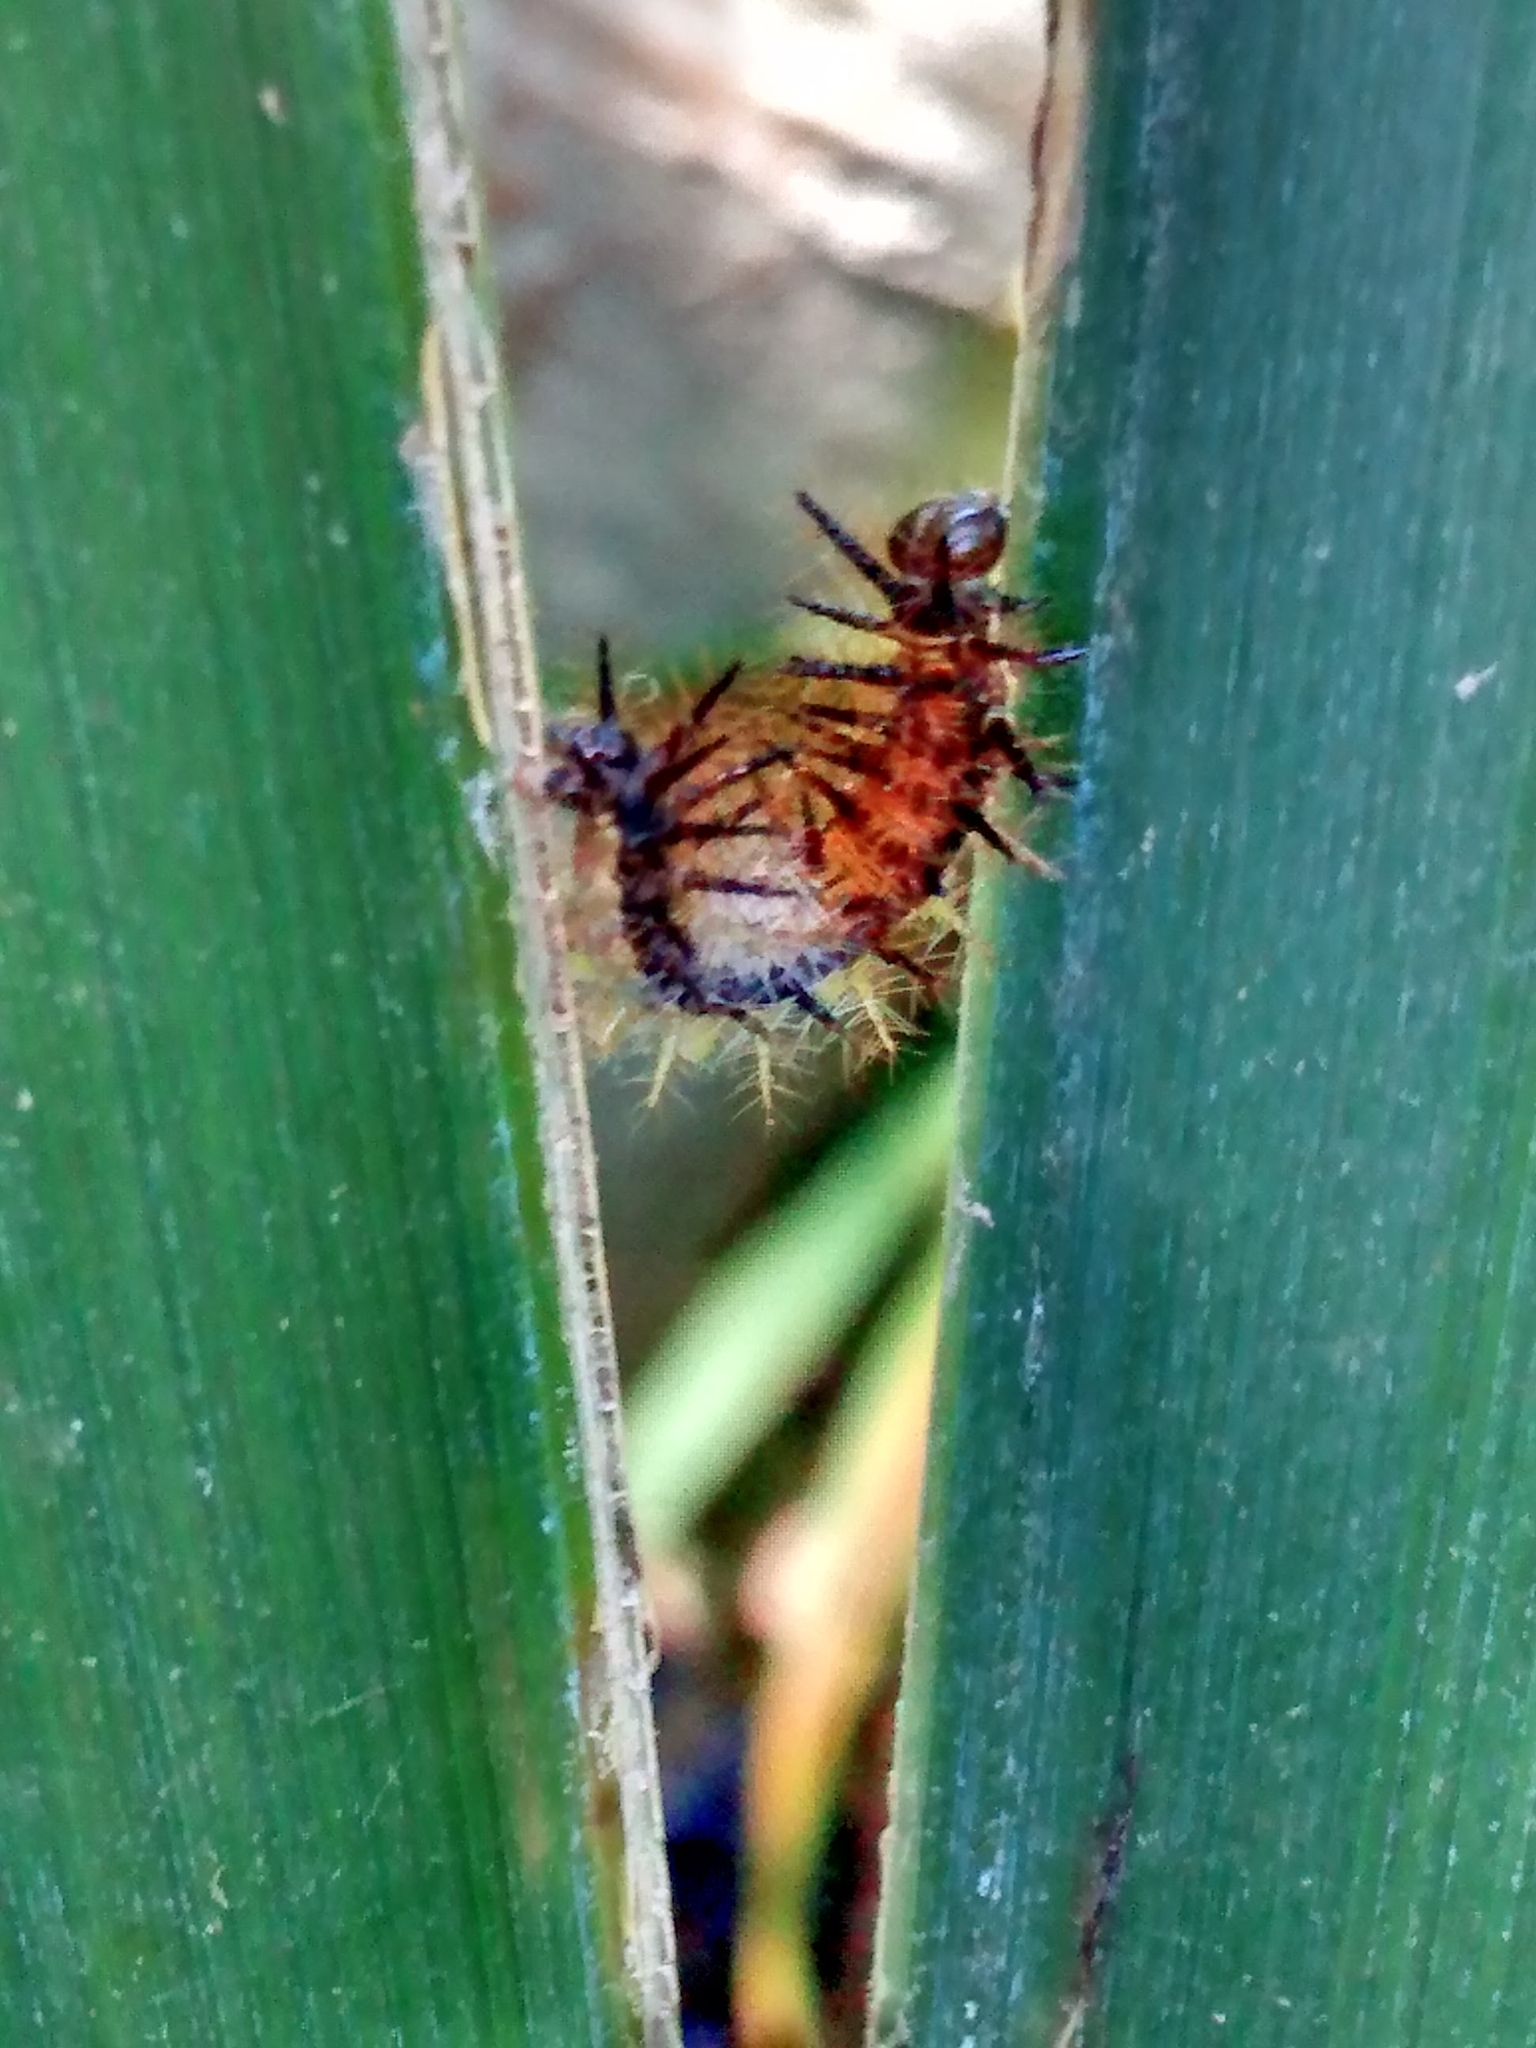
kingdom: Animalia
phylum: Arthropoda
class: Insecta
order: Lepidoptera
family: Nymphalidae
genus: Actinote
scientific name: Actinote
